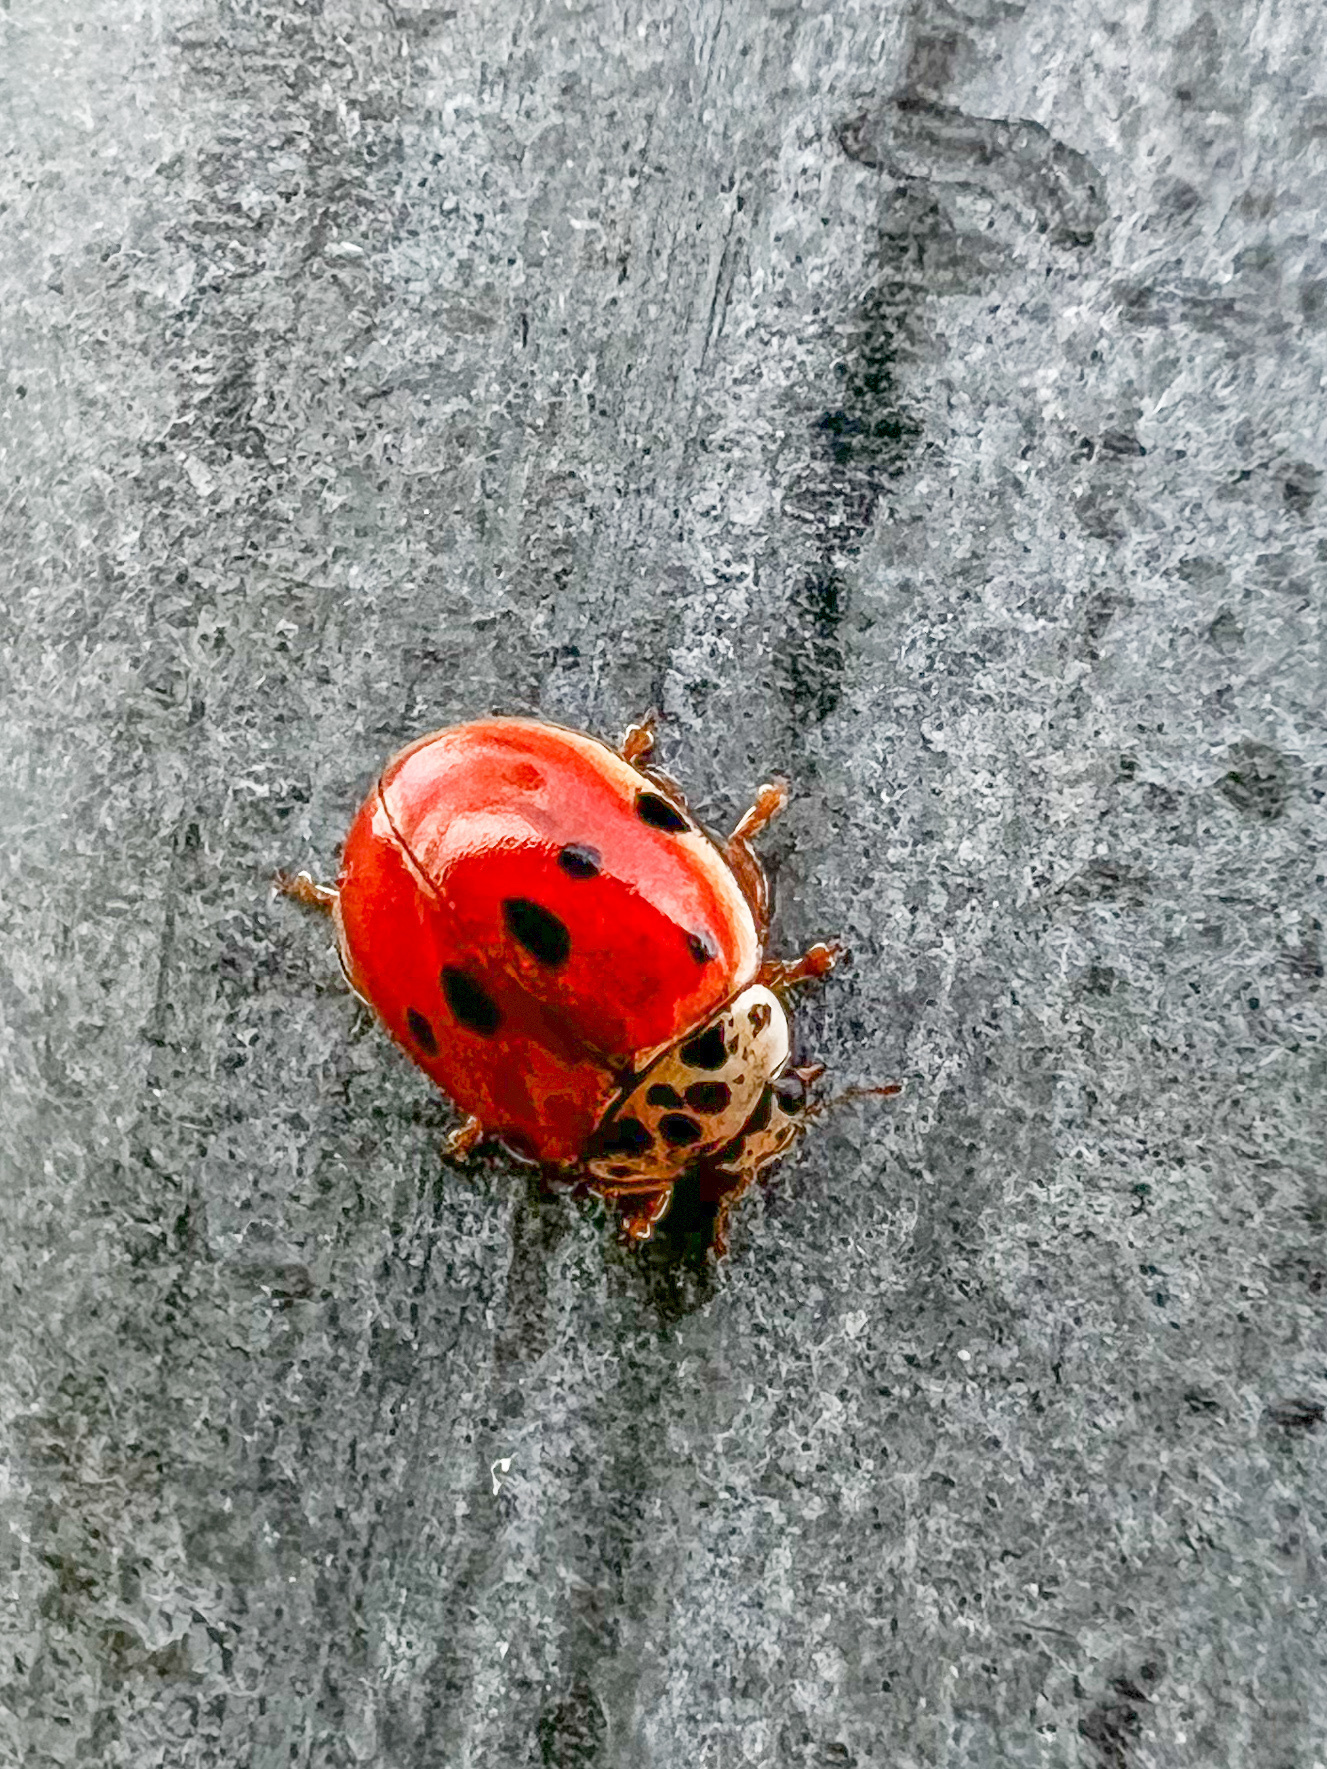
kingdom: Animalia
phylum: Arthropoda
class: Insecta
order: Coleoptera
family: Coccinellidae
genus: Adalia
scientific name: Adalia decempunctata
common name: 10-spot ladybird
